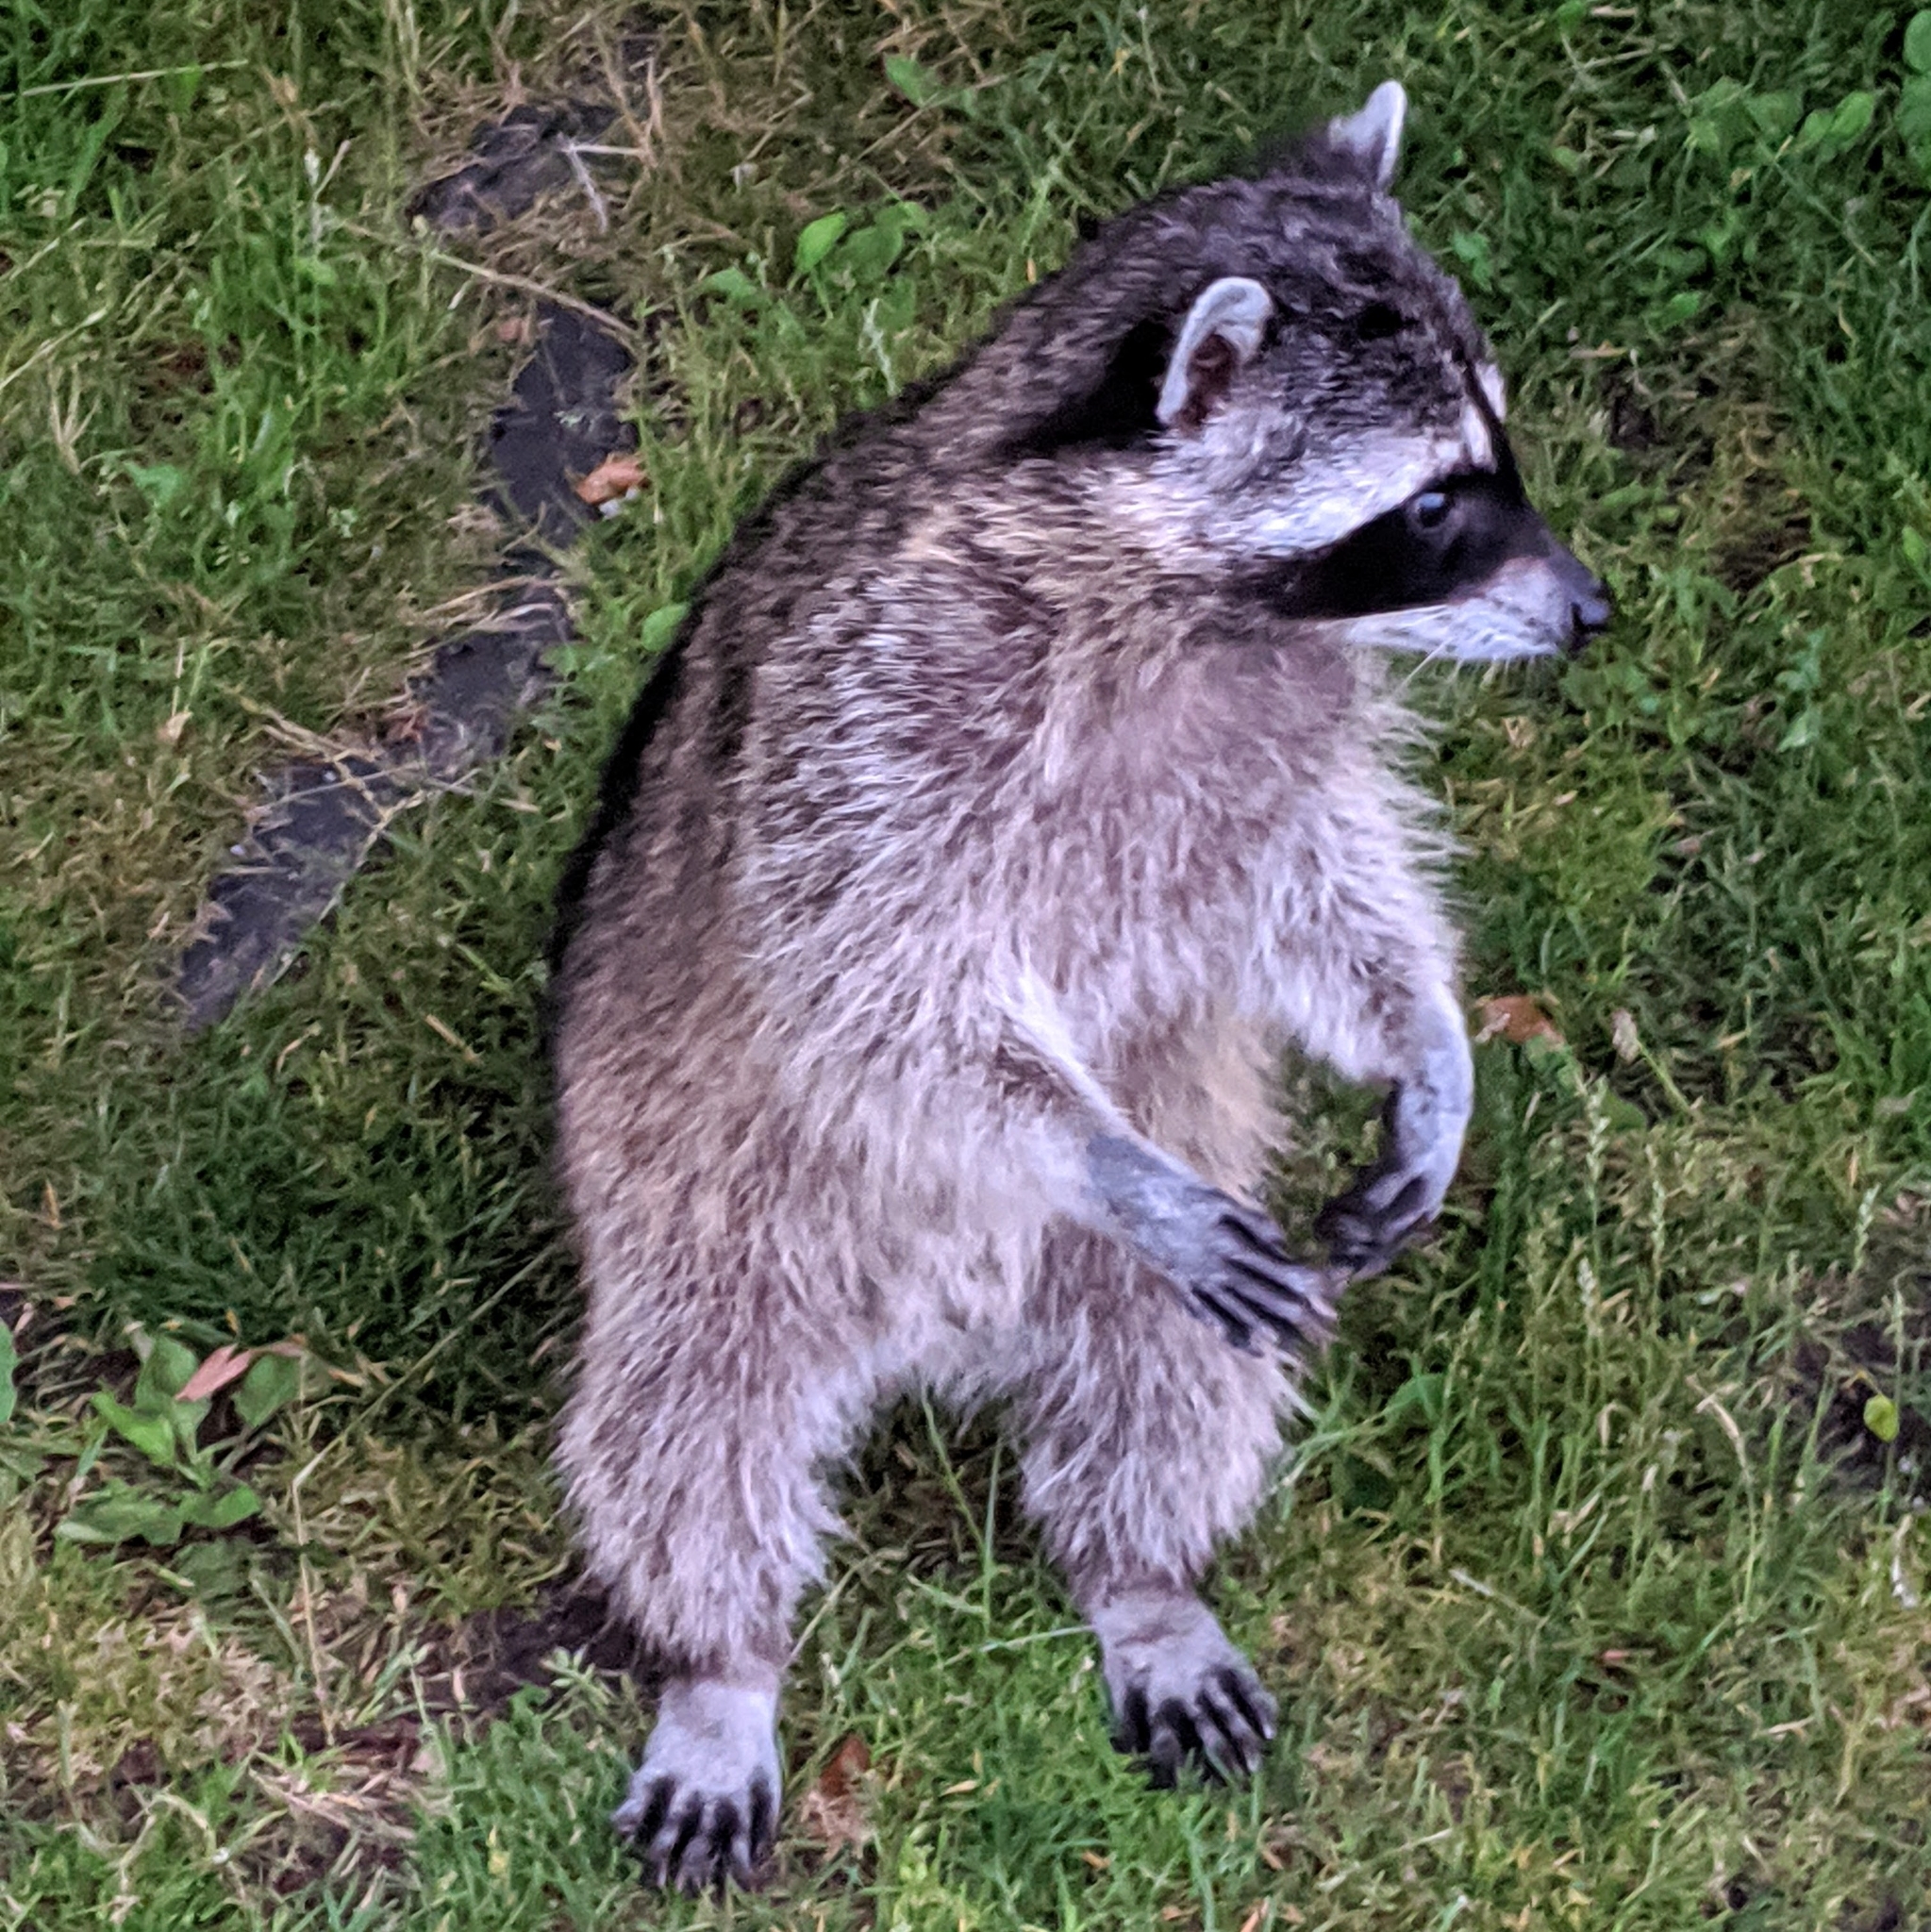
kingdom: Animalia
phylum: Chordata
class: Mammalia
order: Carnivora
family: Procyonidae
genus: Procyon
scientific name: Procyon lotor
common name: Raccoon
